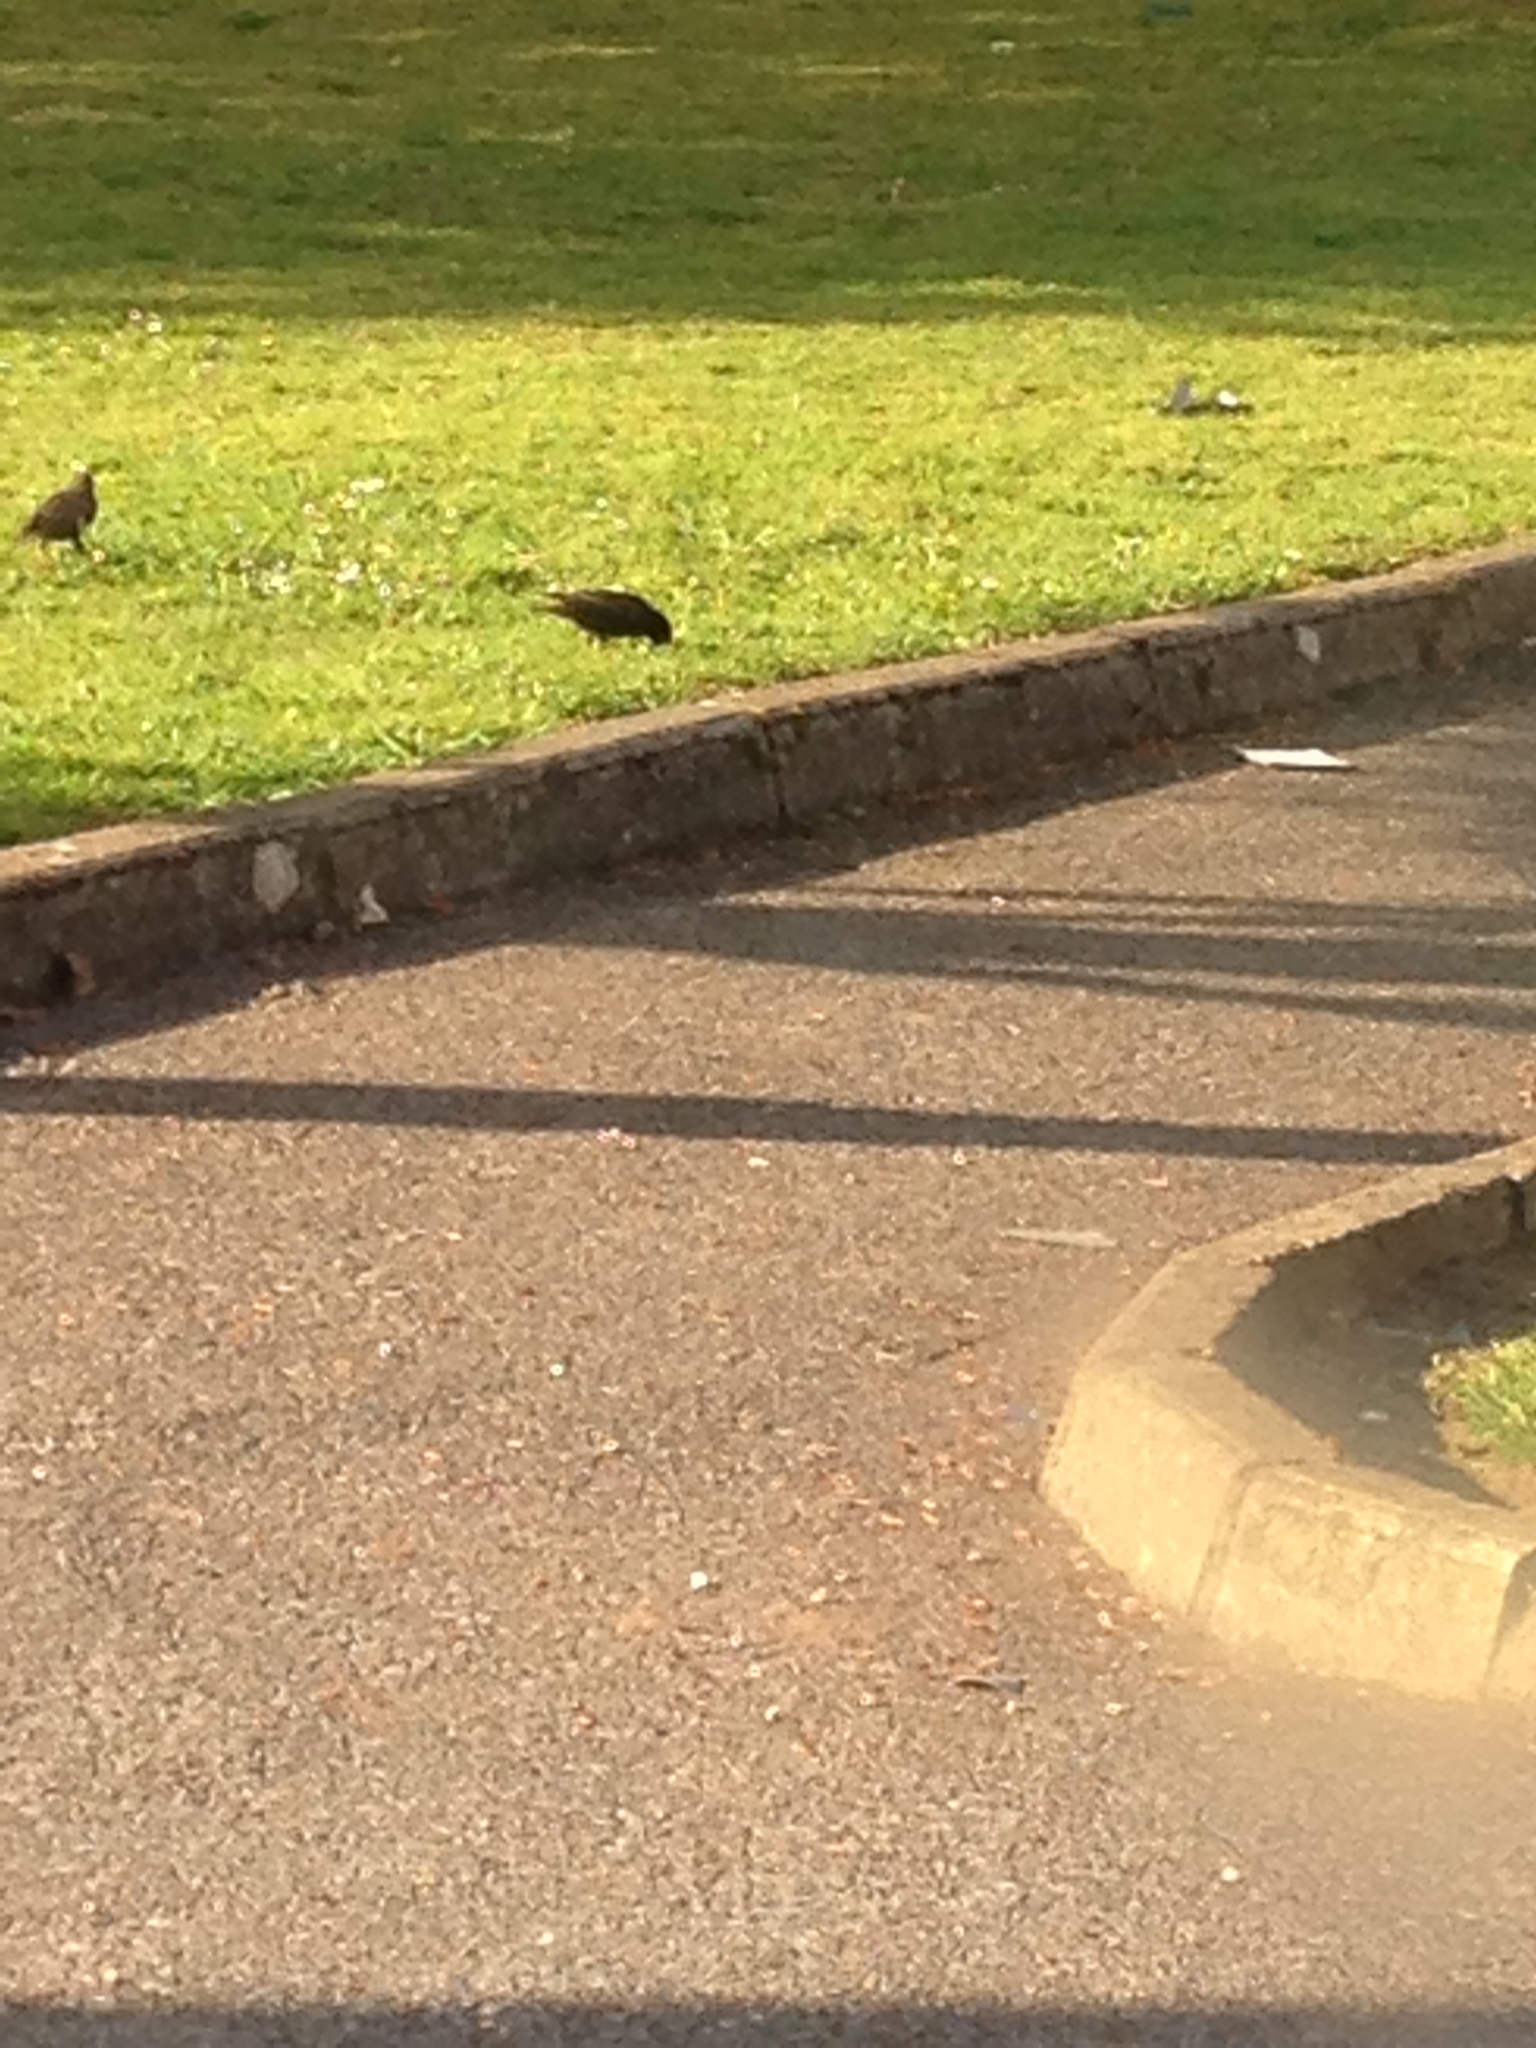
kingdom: Animalia
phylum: Chordata
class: Aves
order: Passeriformes
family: Sturnidae
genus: Sturnus
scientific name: Sturnus vulgaris
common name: Common starling
